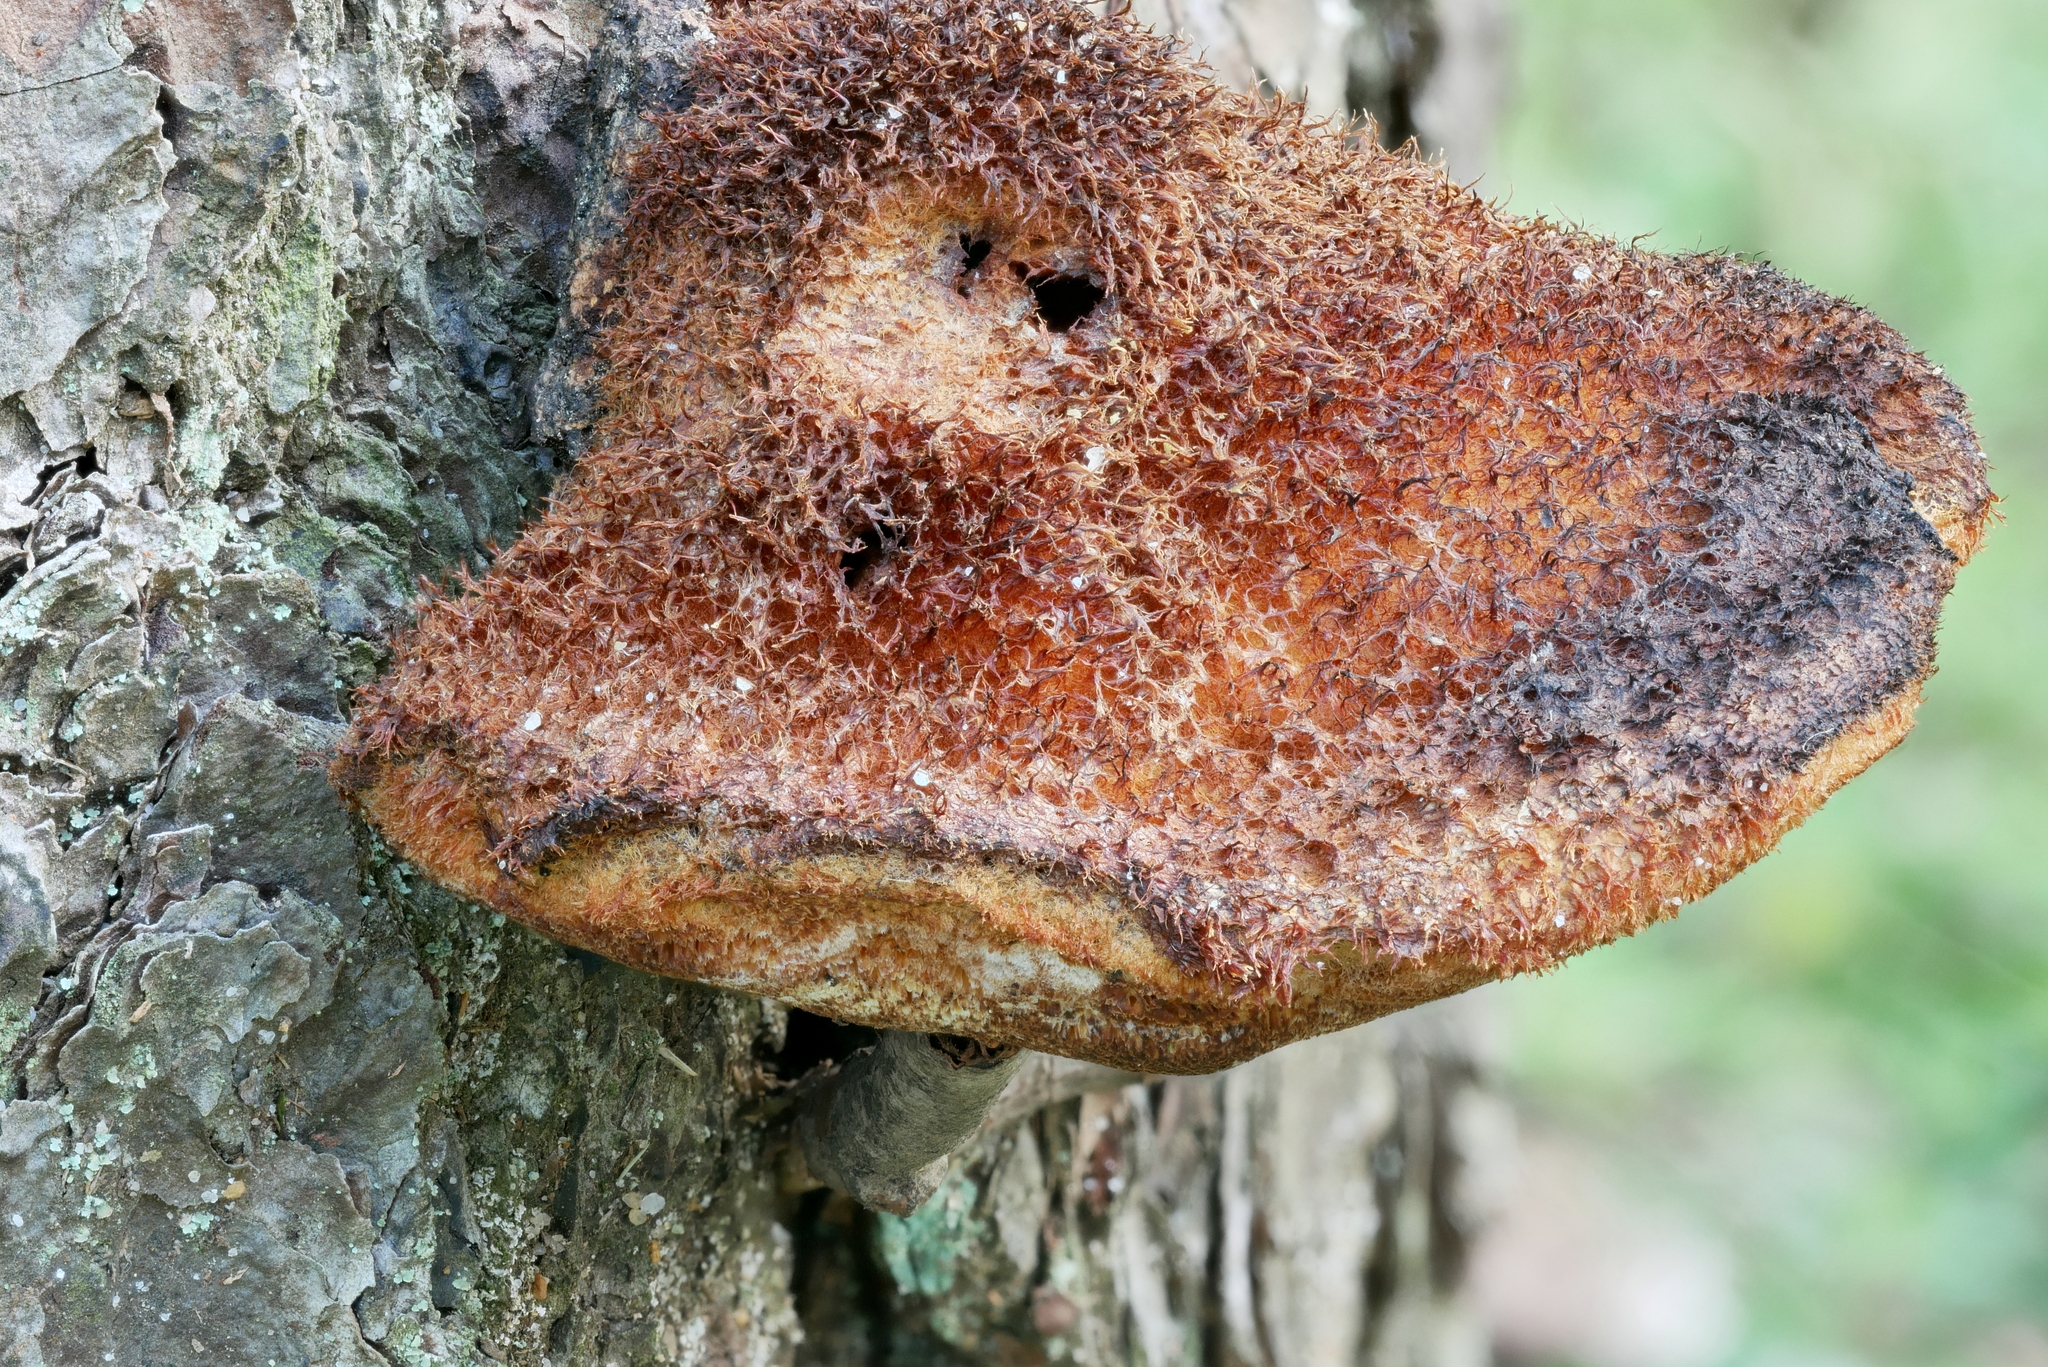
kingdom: Fungi
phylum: Basidiomycota
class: Agaricomycetes
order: Hymenochaetales
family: Hymenochaetaceae
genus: Inonotus
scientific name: Inonotus hispidus
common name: Shaggy bracket
